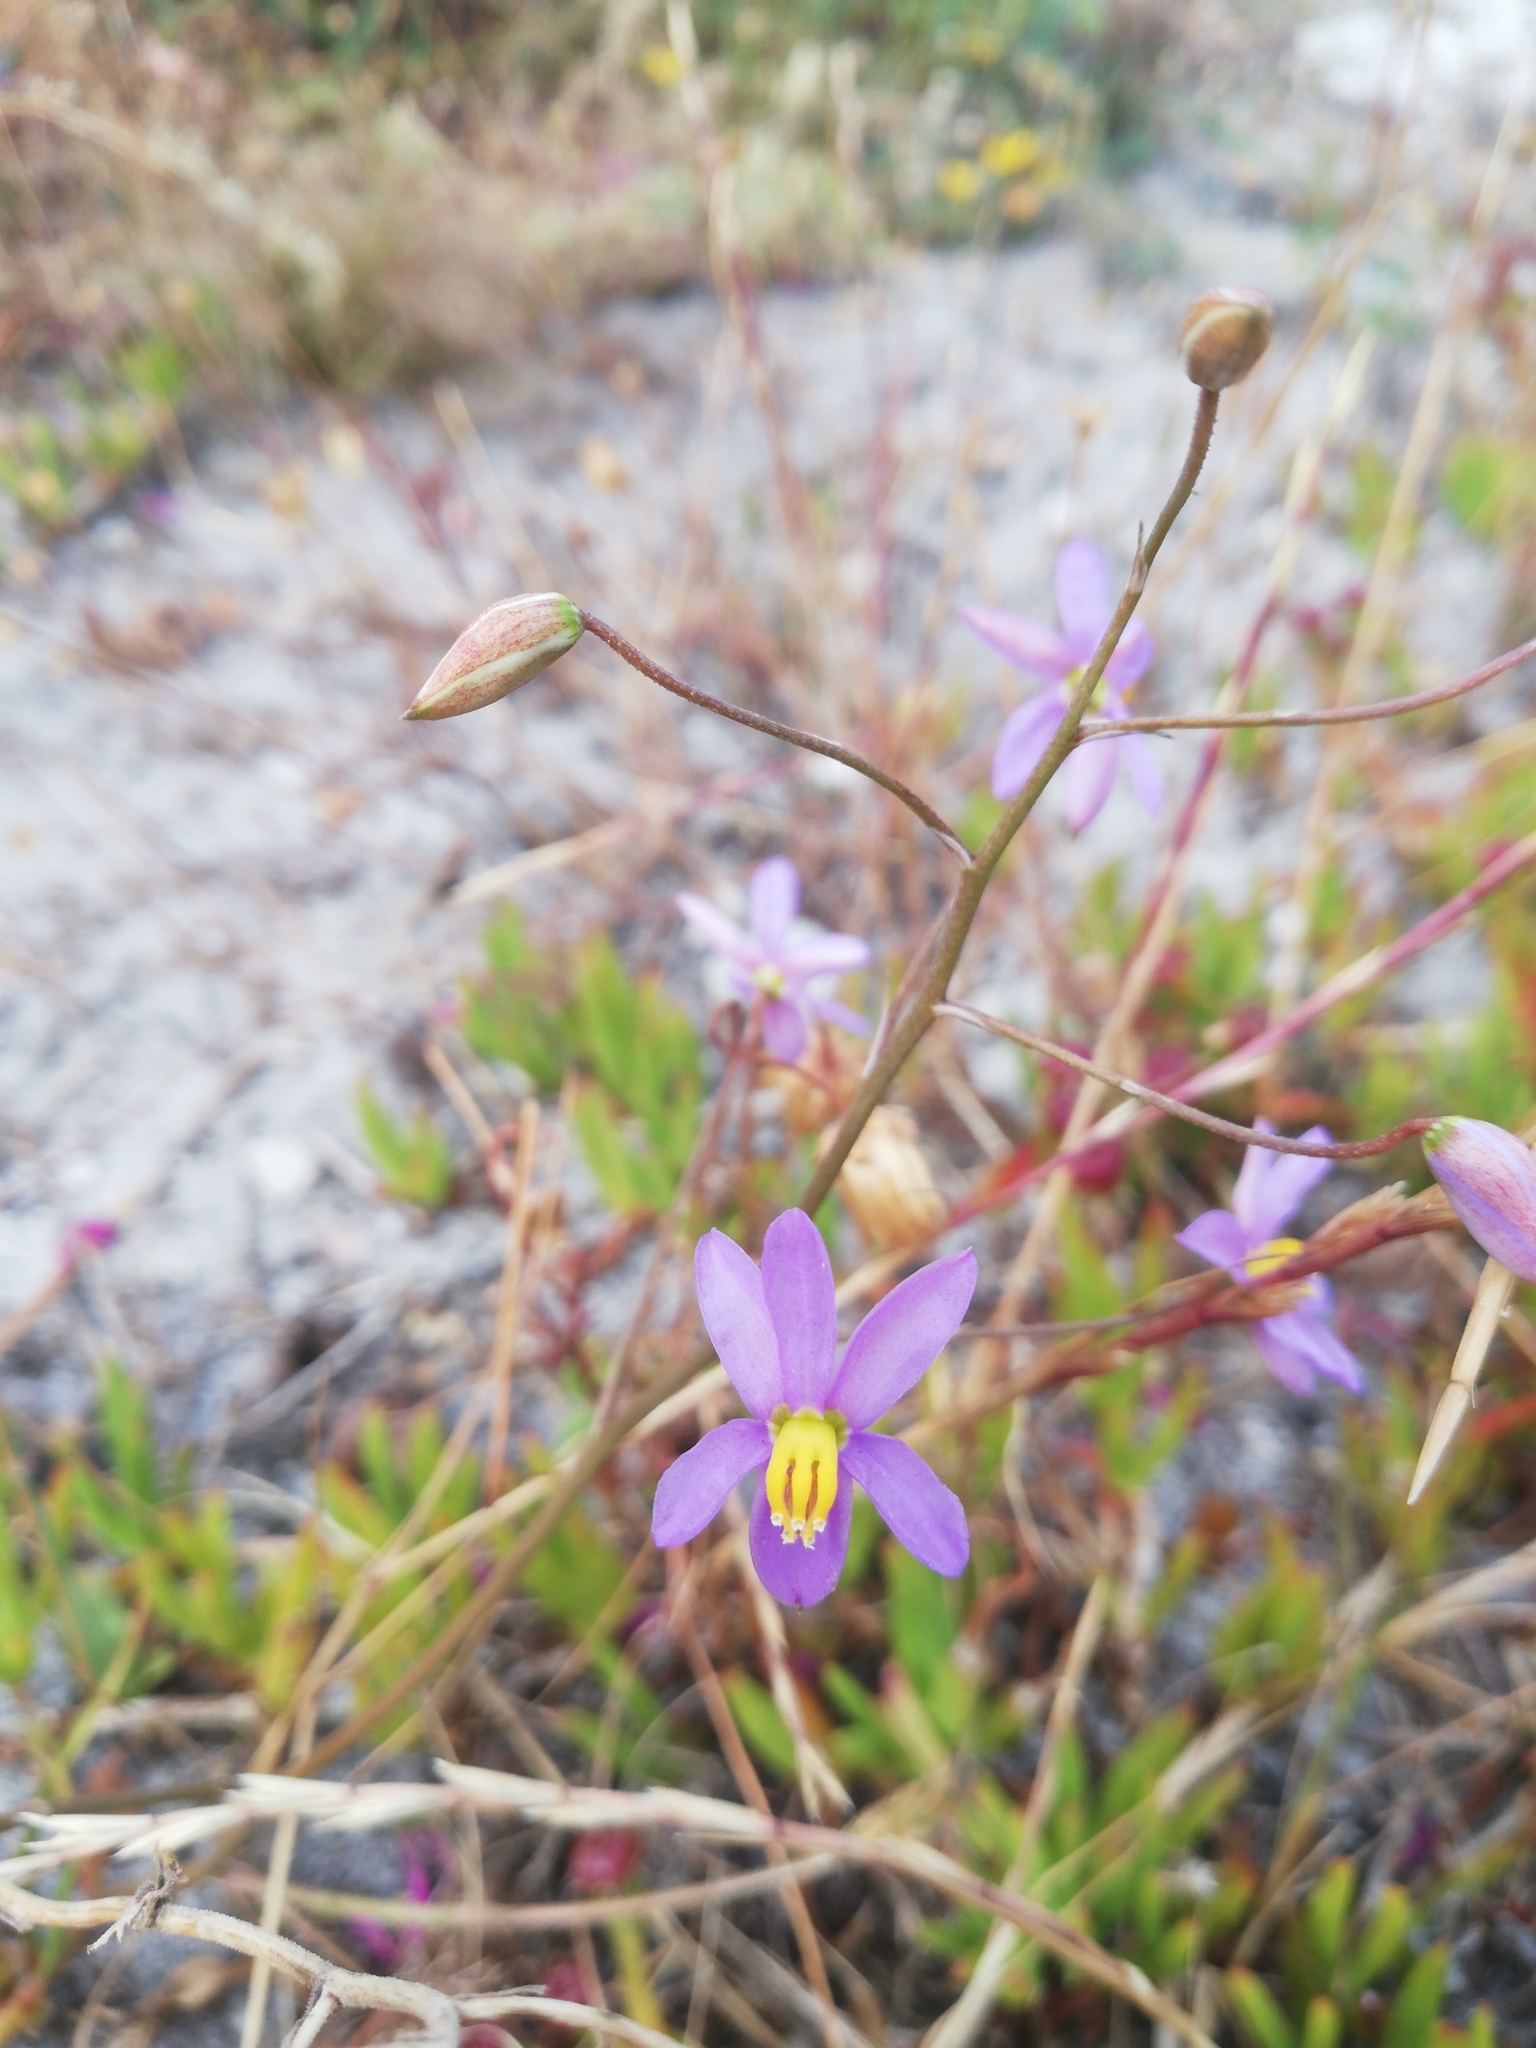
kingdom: Plantae
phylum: Tracheophyta
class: Liliopsida
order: Asparagales
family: Tecophilaeaceae
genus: Cyanella
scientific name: Cyanella hyacinthoides
